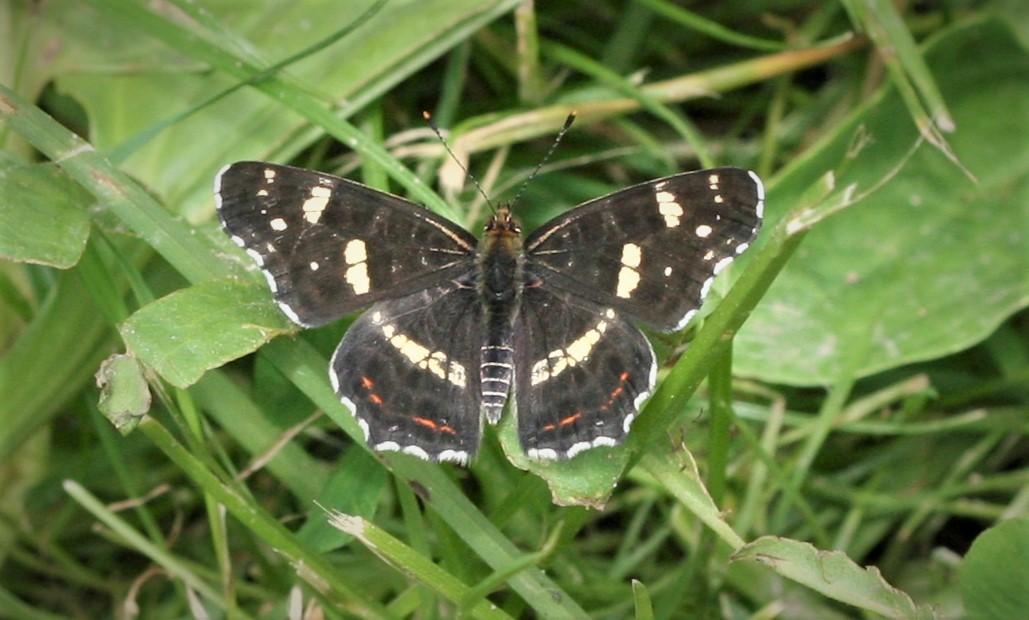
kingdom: Animalia
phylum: Arthropoda
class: Insecta
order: Lepidoptera
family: Nymphalidae
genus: Araschnia
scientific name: Araschnia levana
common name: Map butterfly
